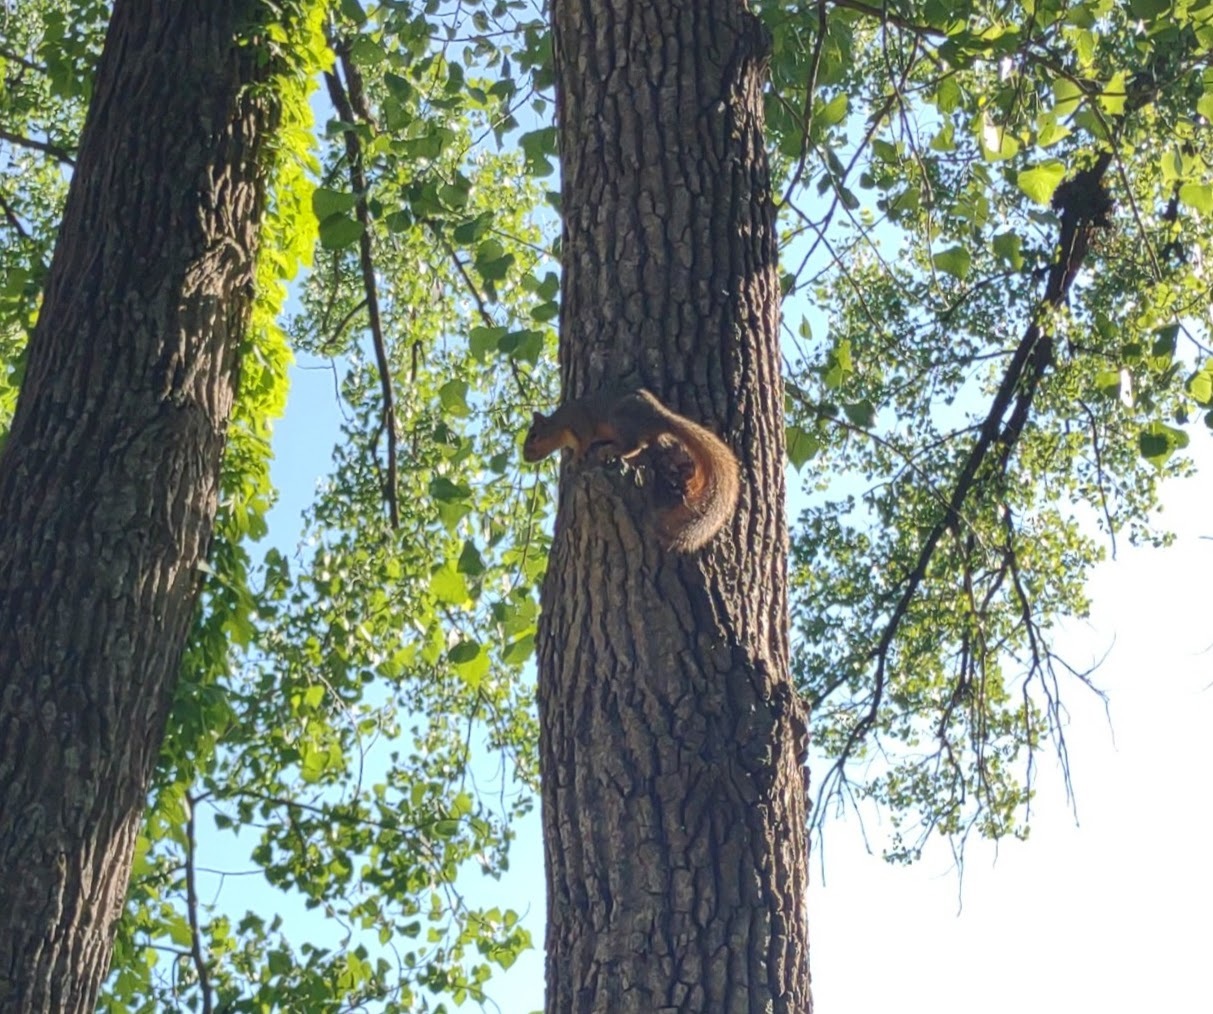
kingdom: Animalia
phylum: Chordata
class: Mammalia
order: Rodentia
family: Sciuridae
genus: Sciurus
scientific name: Sciurus niger
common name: Fox squirrel
